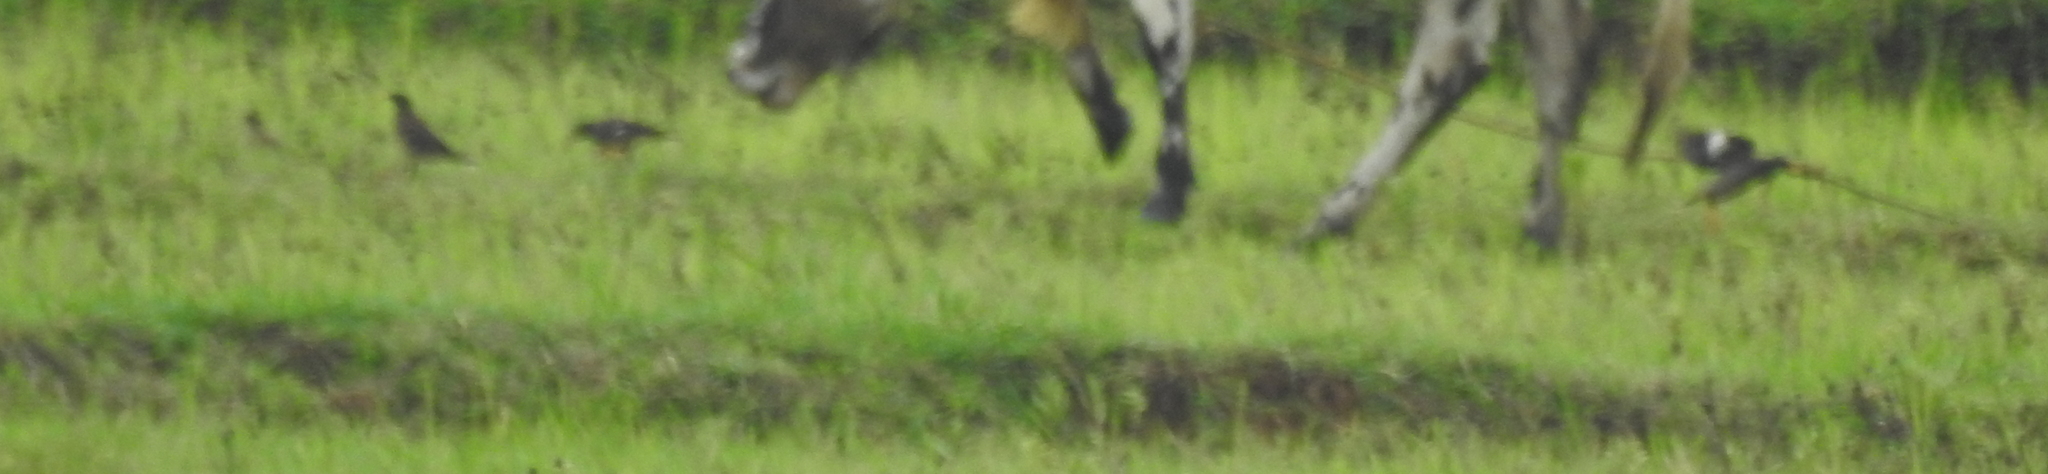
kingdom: Animalia
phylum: Chordata
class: Aves
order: Passeriformes
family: Sturnidae
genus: Acridotheres
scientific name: Acridotheres tristis
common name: Common myna
